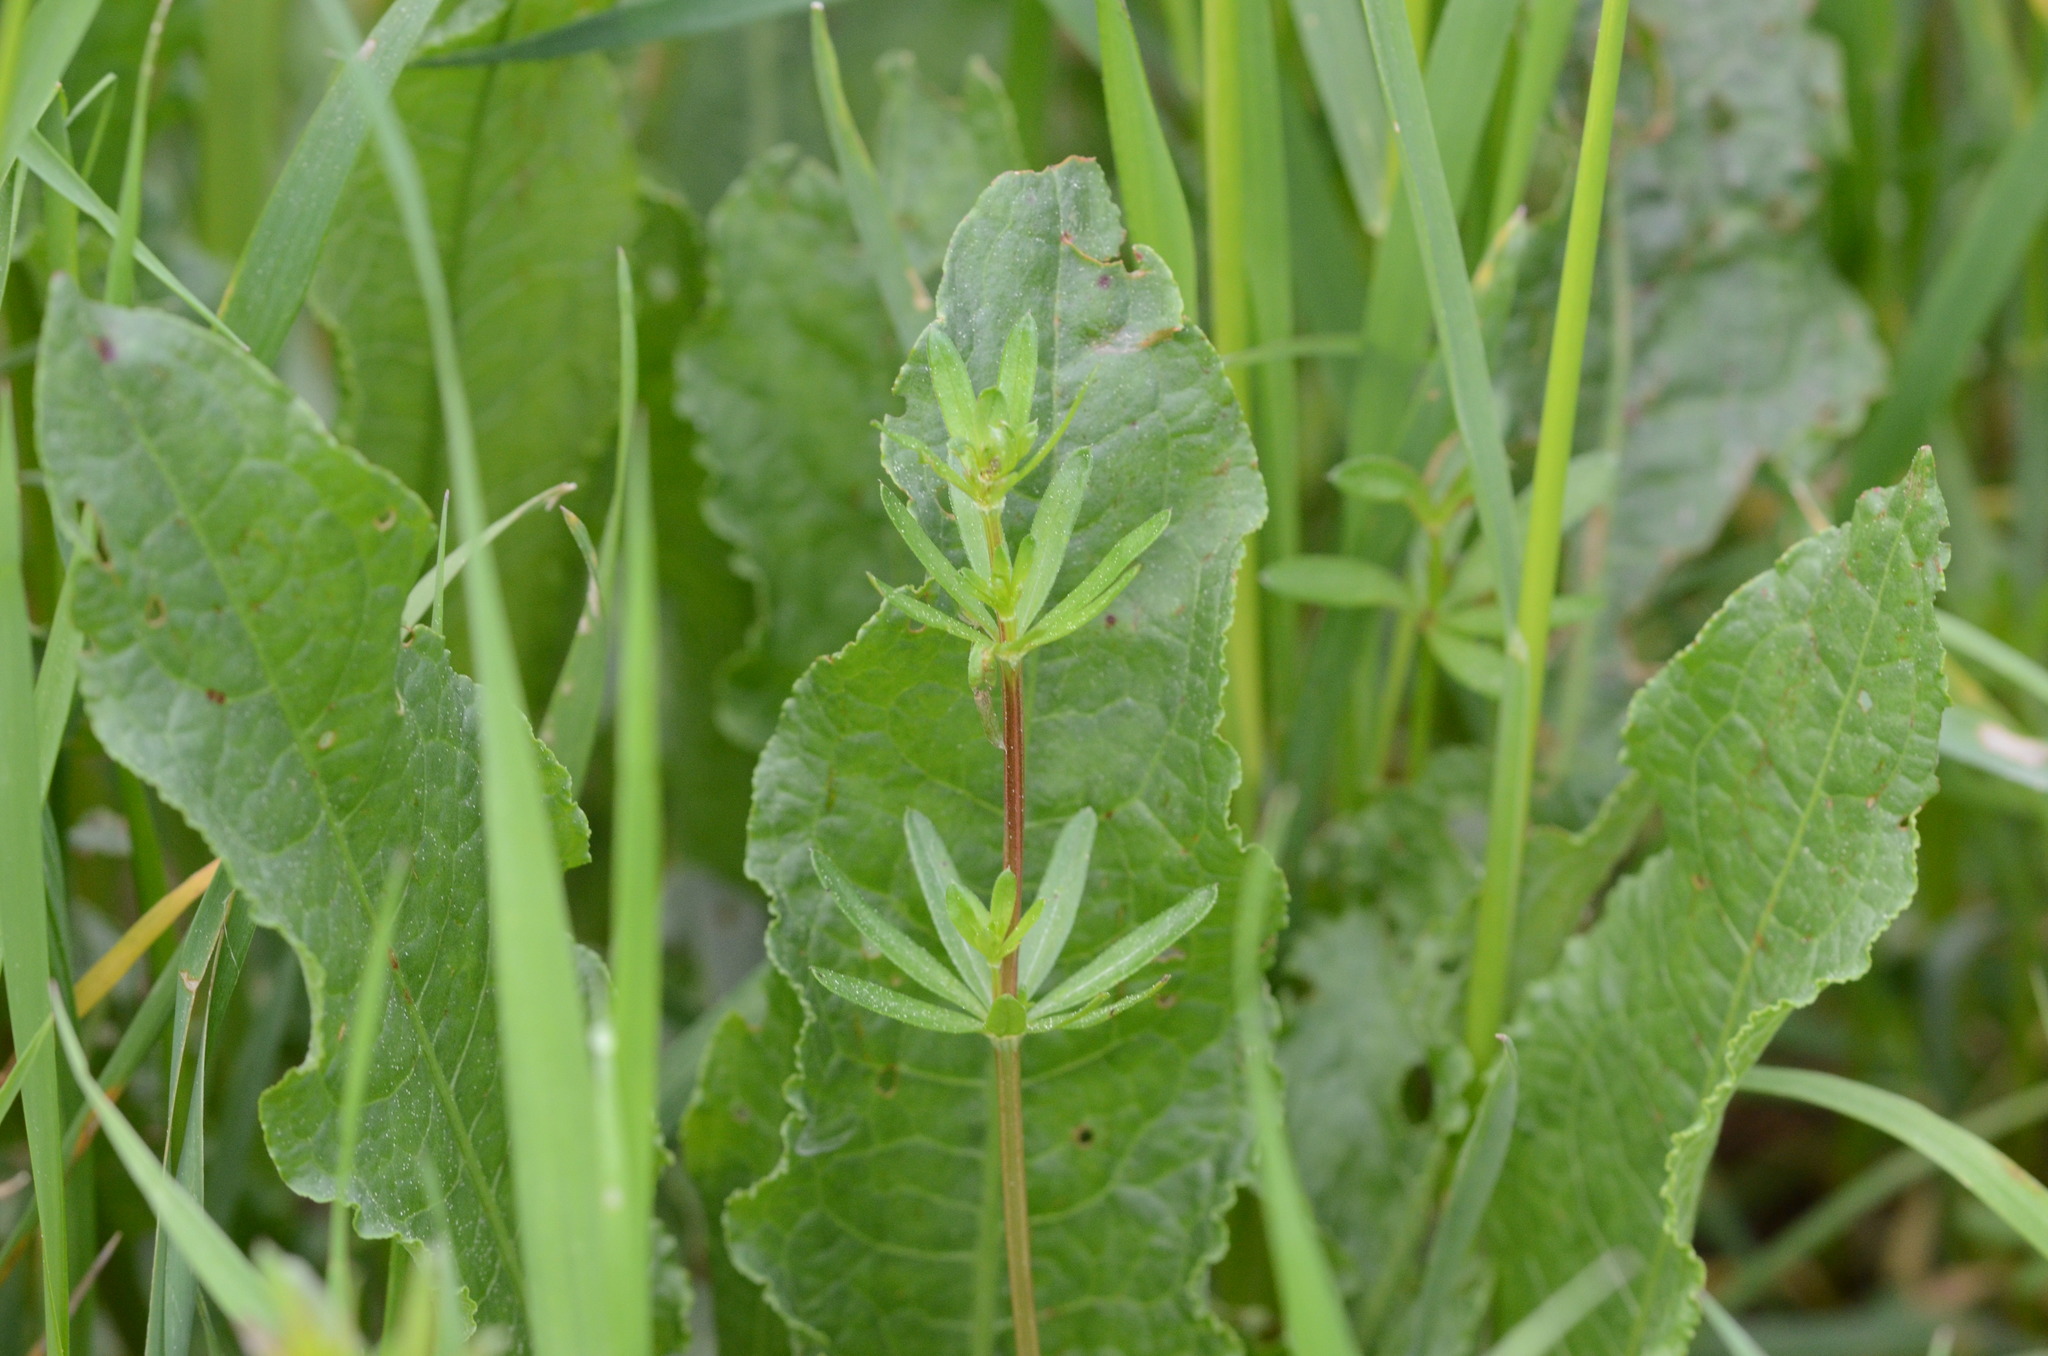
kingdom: Plantae
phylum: Tracheophyta
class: Magnoliopsida
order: Caryophyllales
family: Polygonaceae
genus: Rumex
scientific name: Rumex crispus
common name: Curled dock
